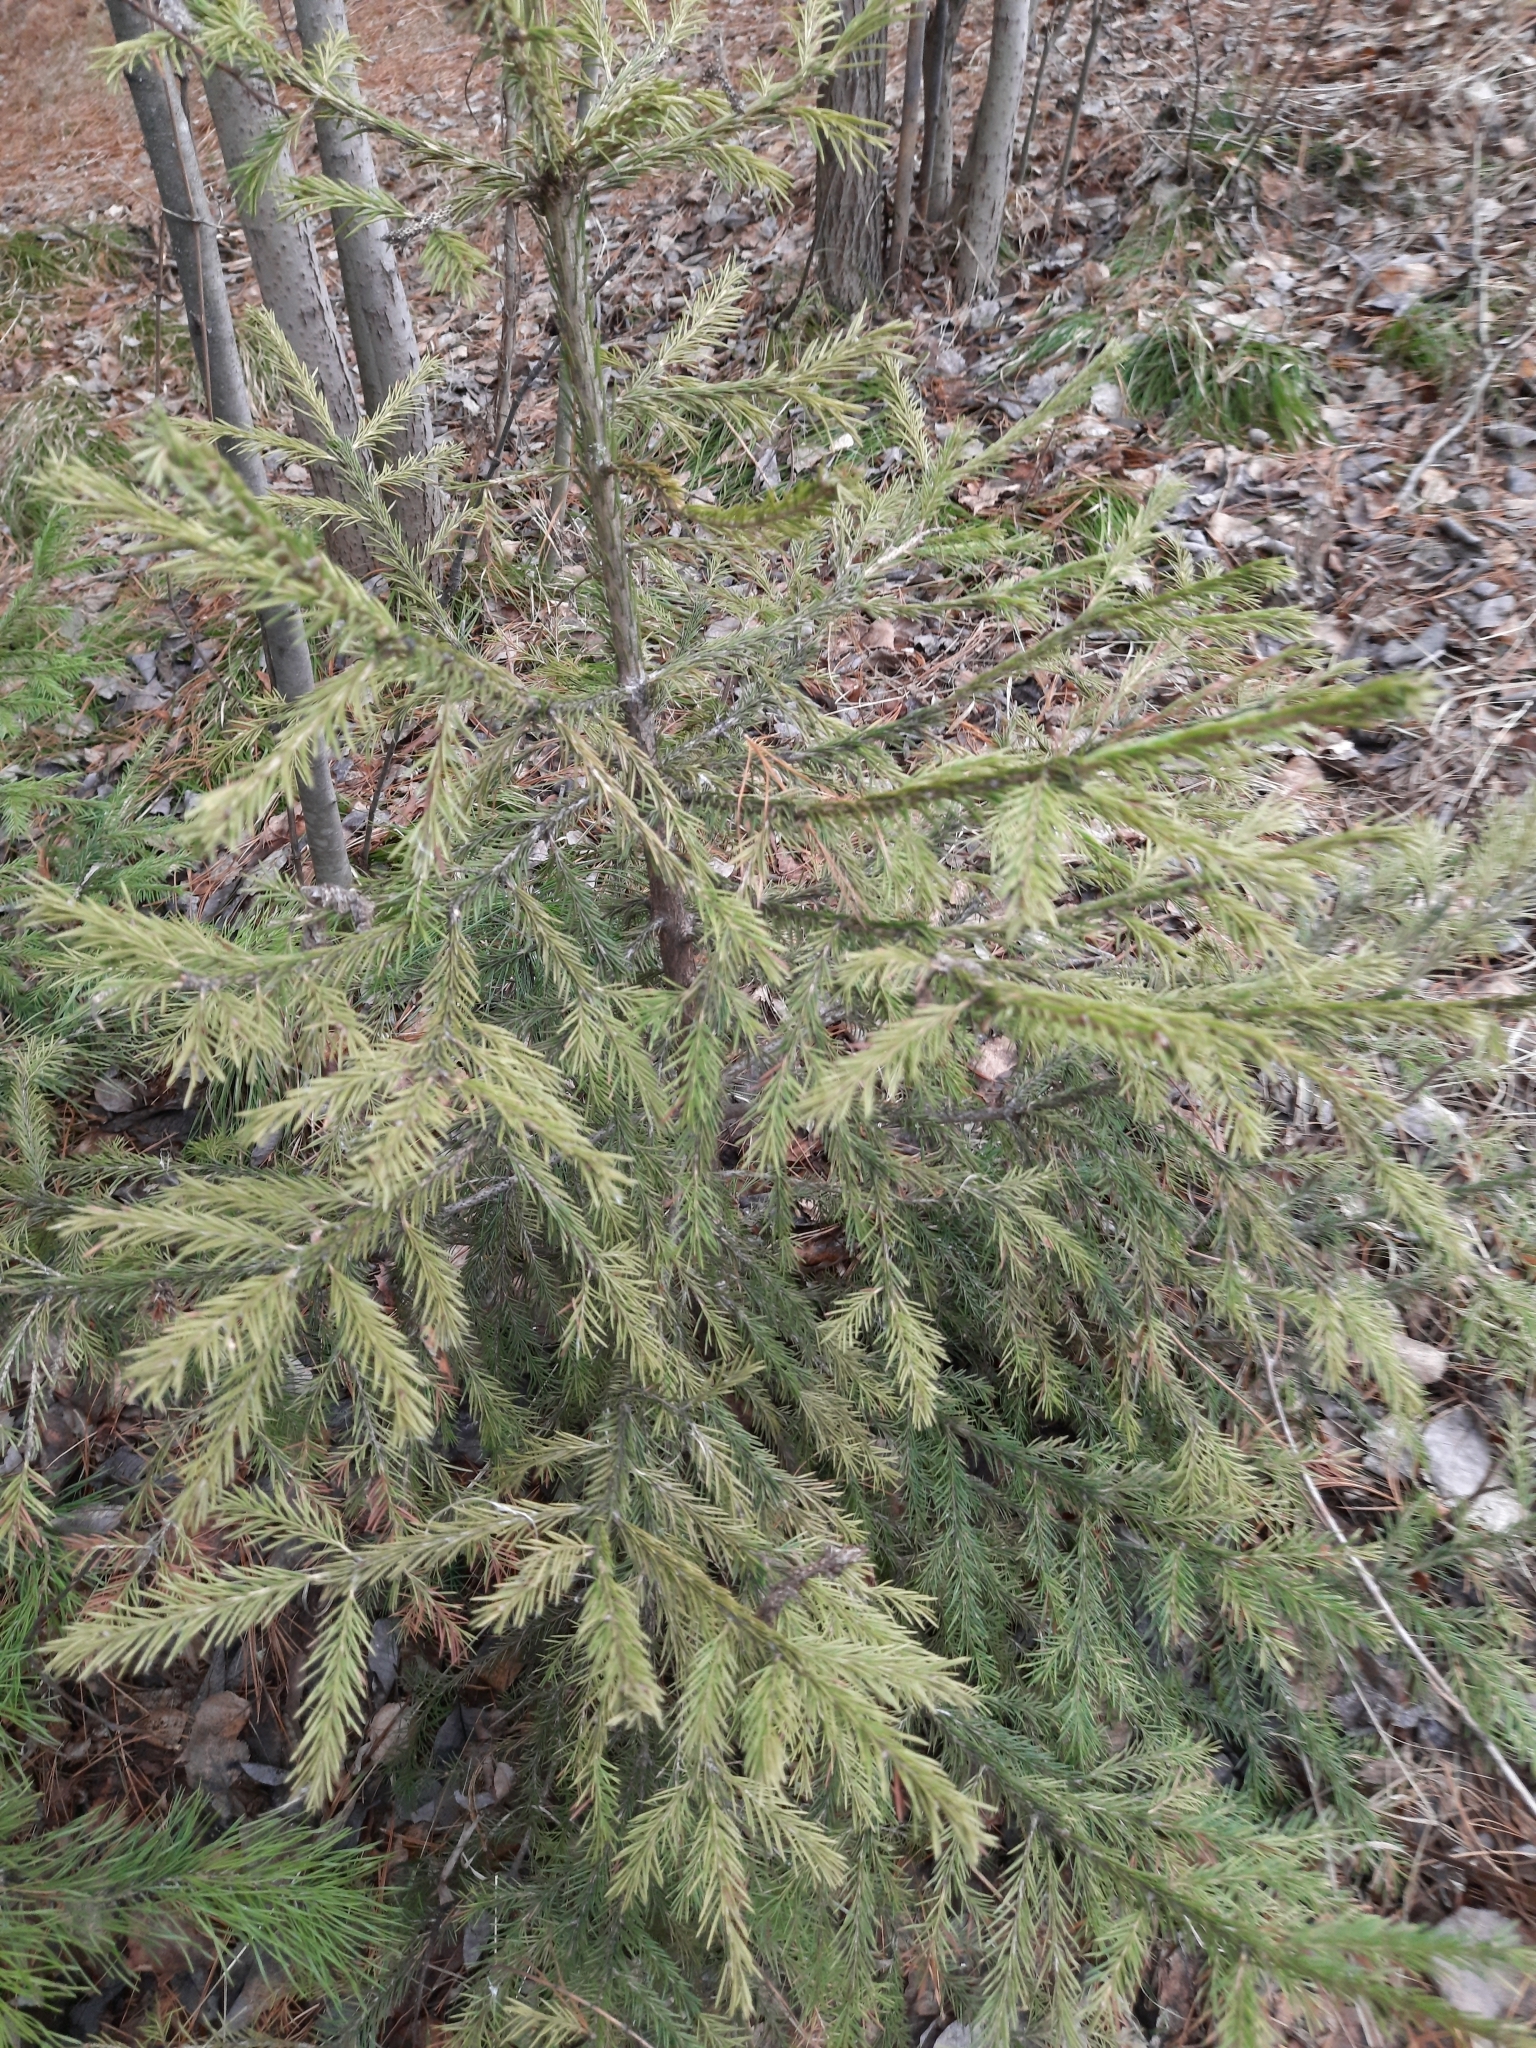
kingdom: Plantae
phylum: Tracheophyta
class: Pinopsida
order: Pinales
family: Pinaceae
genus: Picea
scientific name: Picea obovata
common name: Siberian spruce
